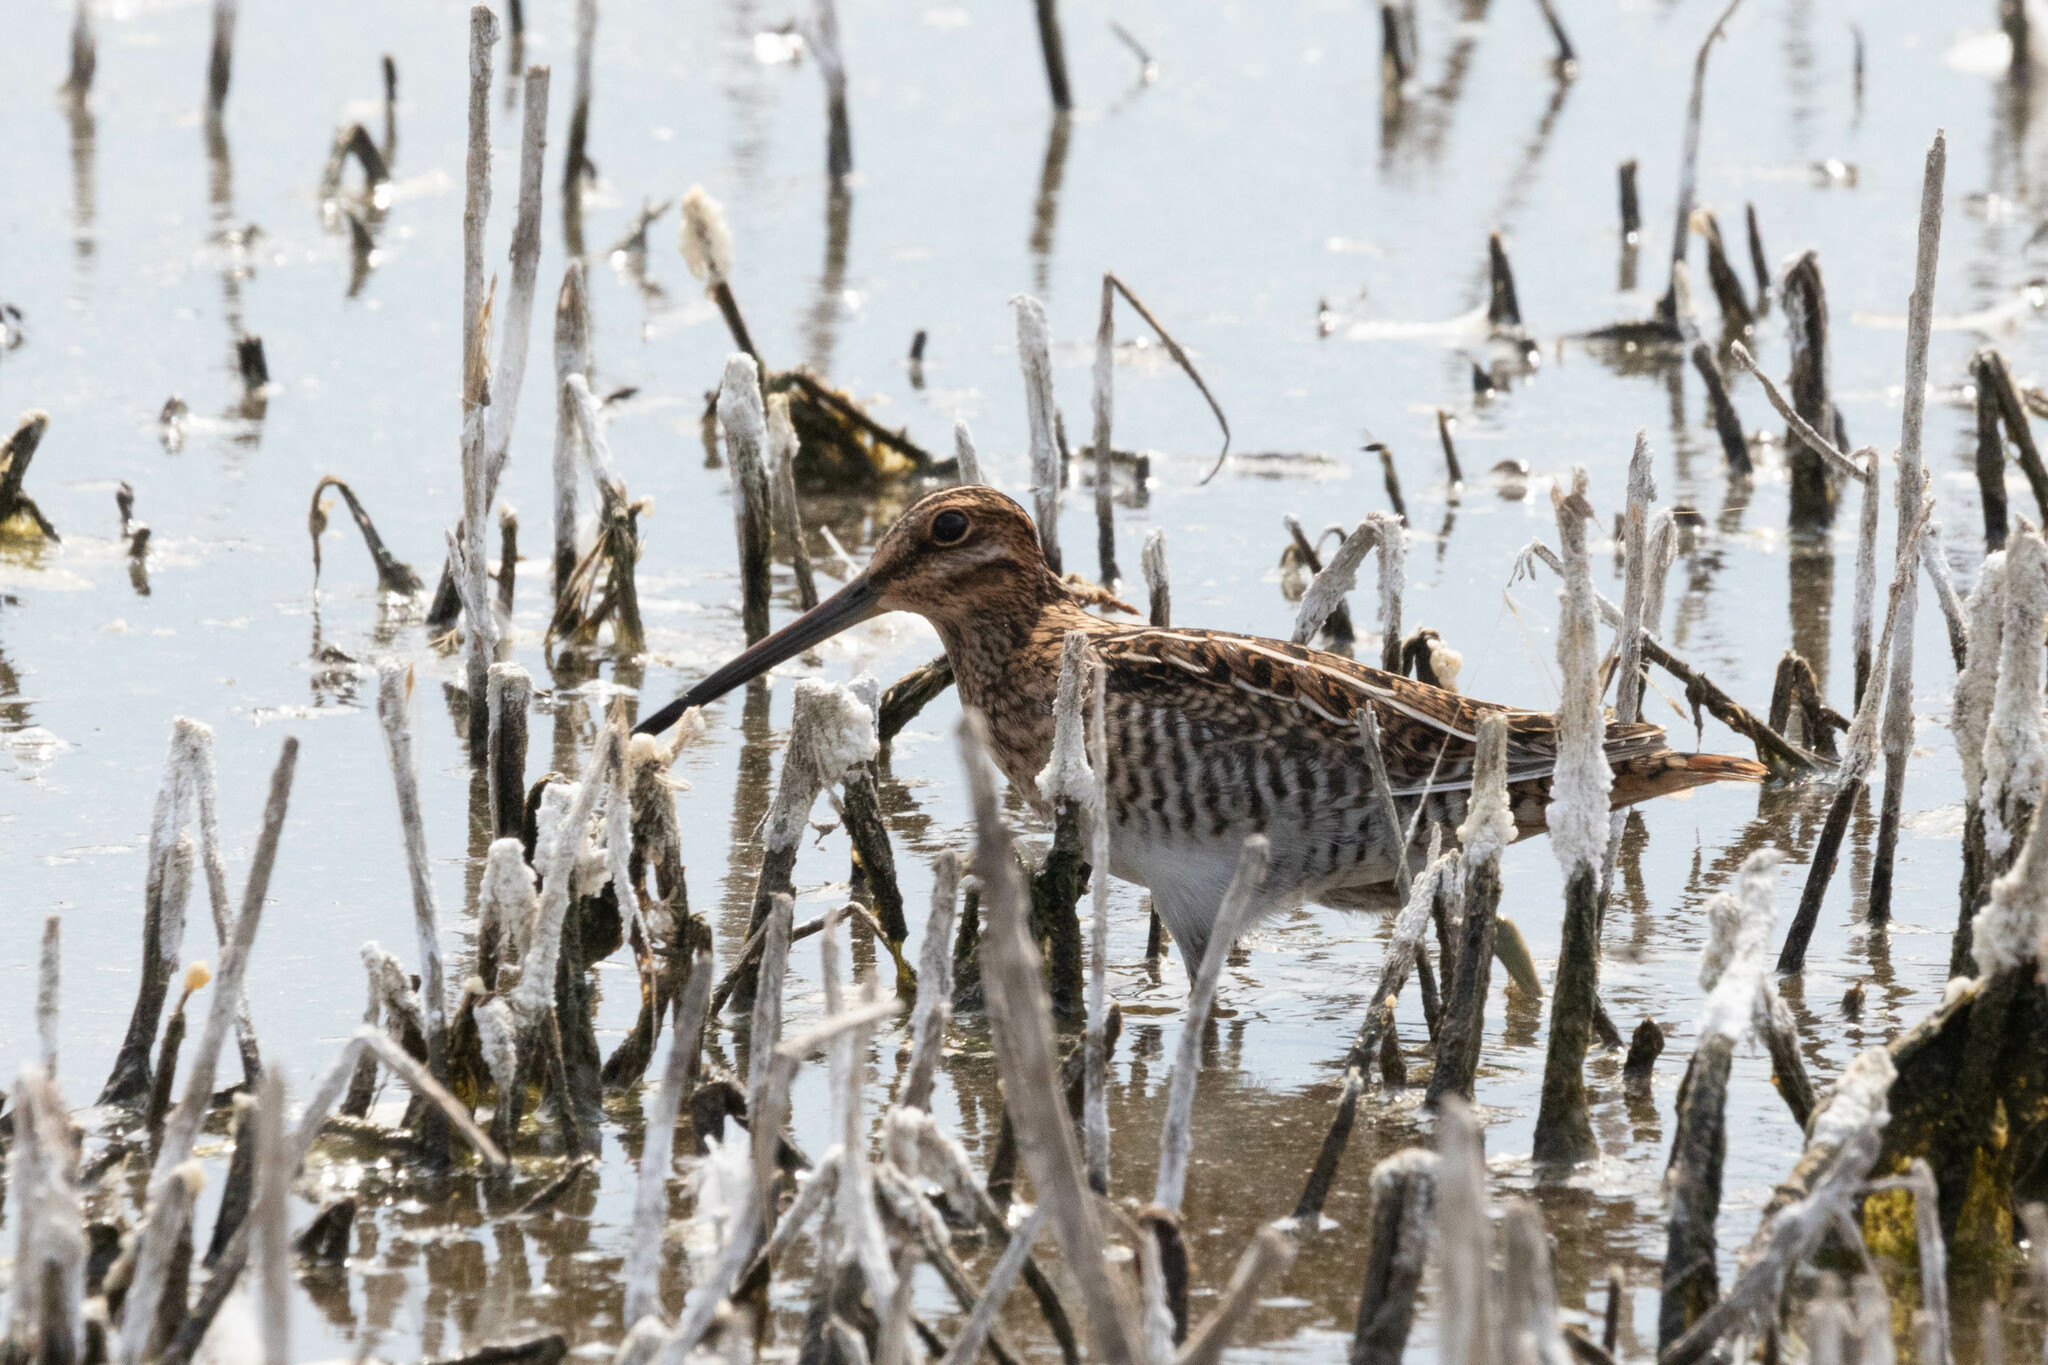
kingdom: Animalia
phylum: Chordata
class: Aves
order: Charadriiformes
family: Scolopacidae
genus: Gallinago
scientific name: Gallinago delicata
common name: Wilson's snipe
